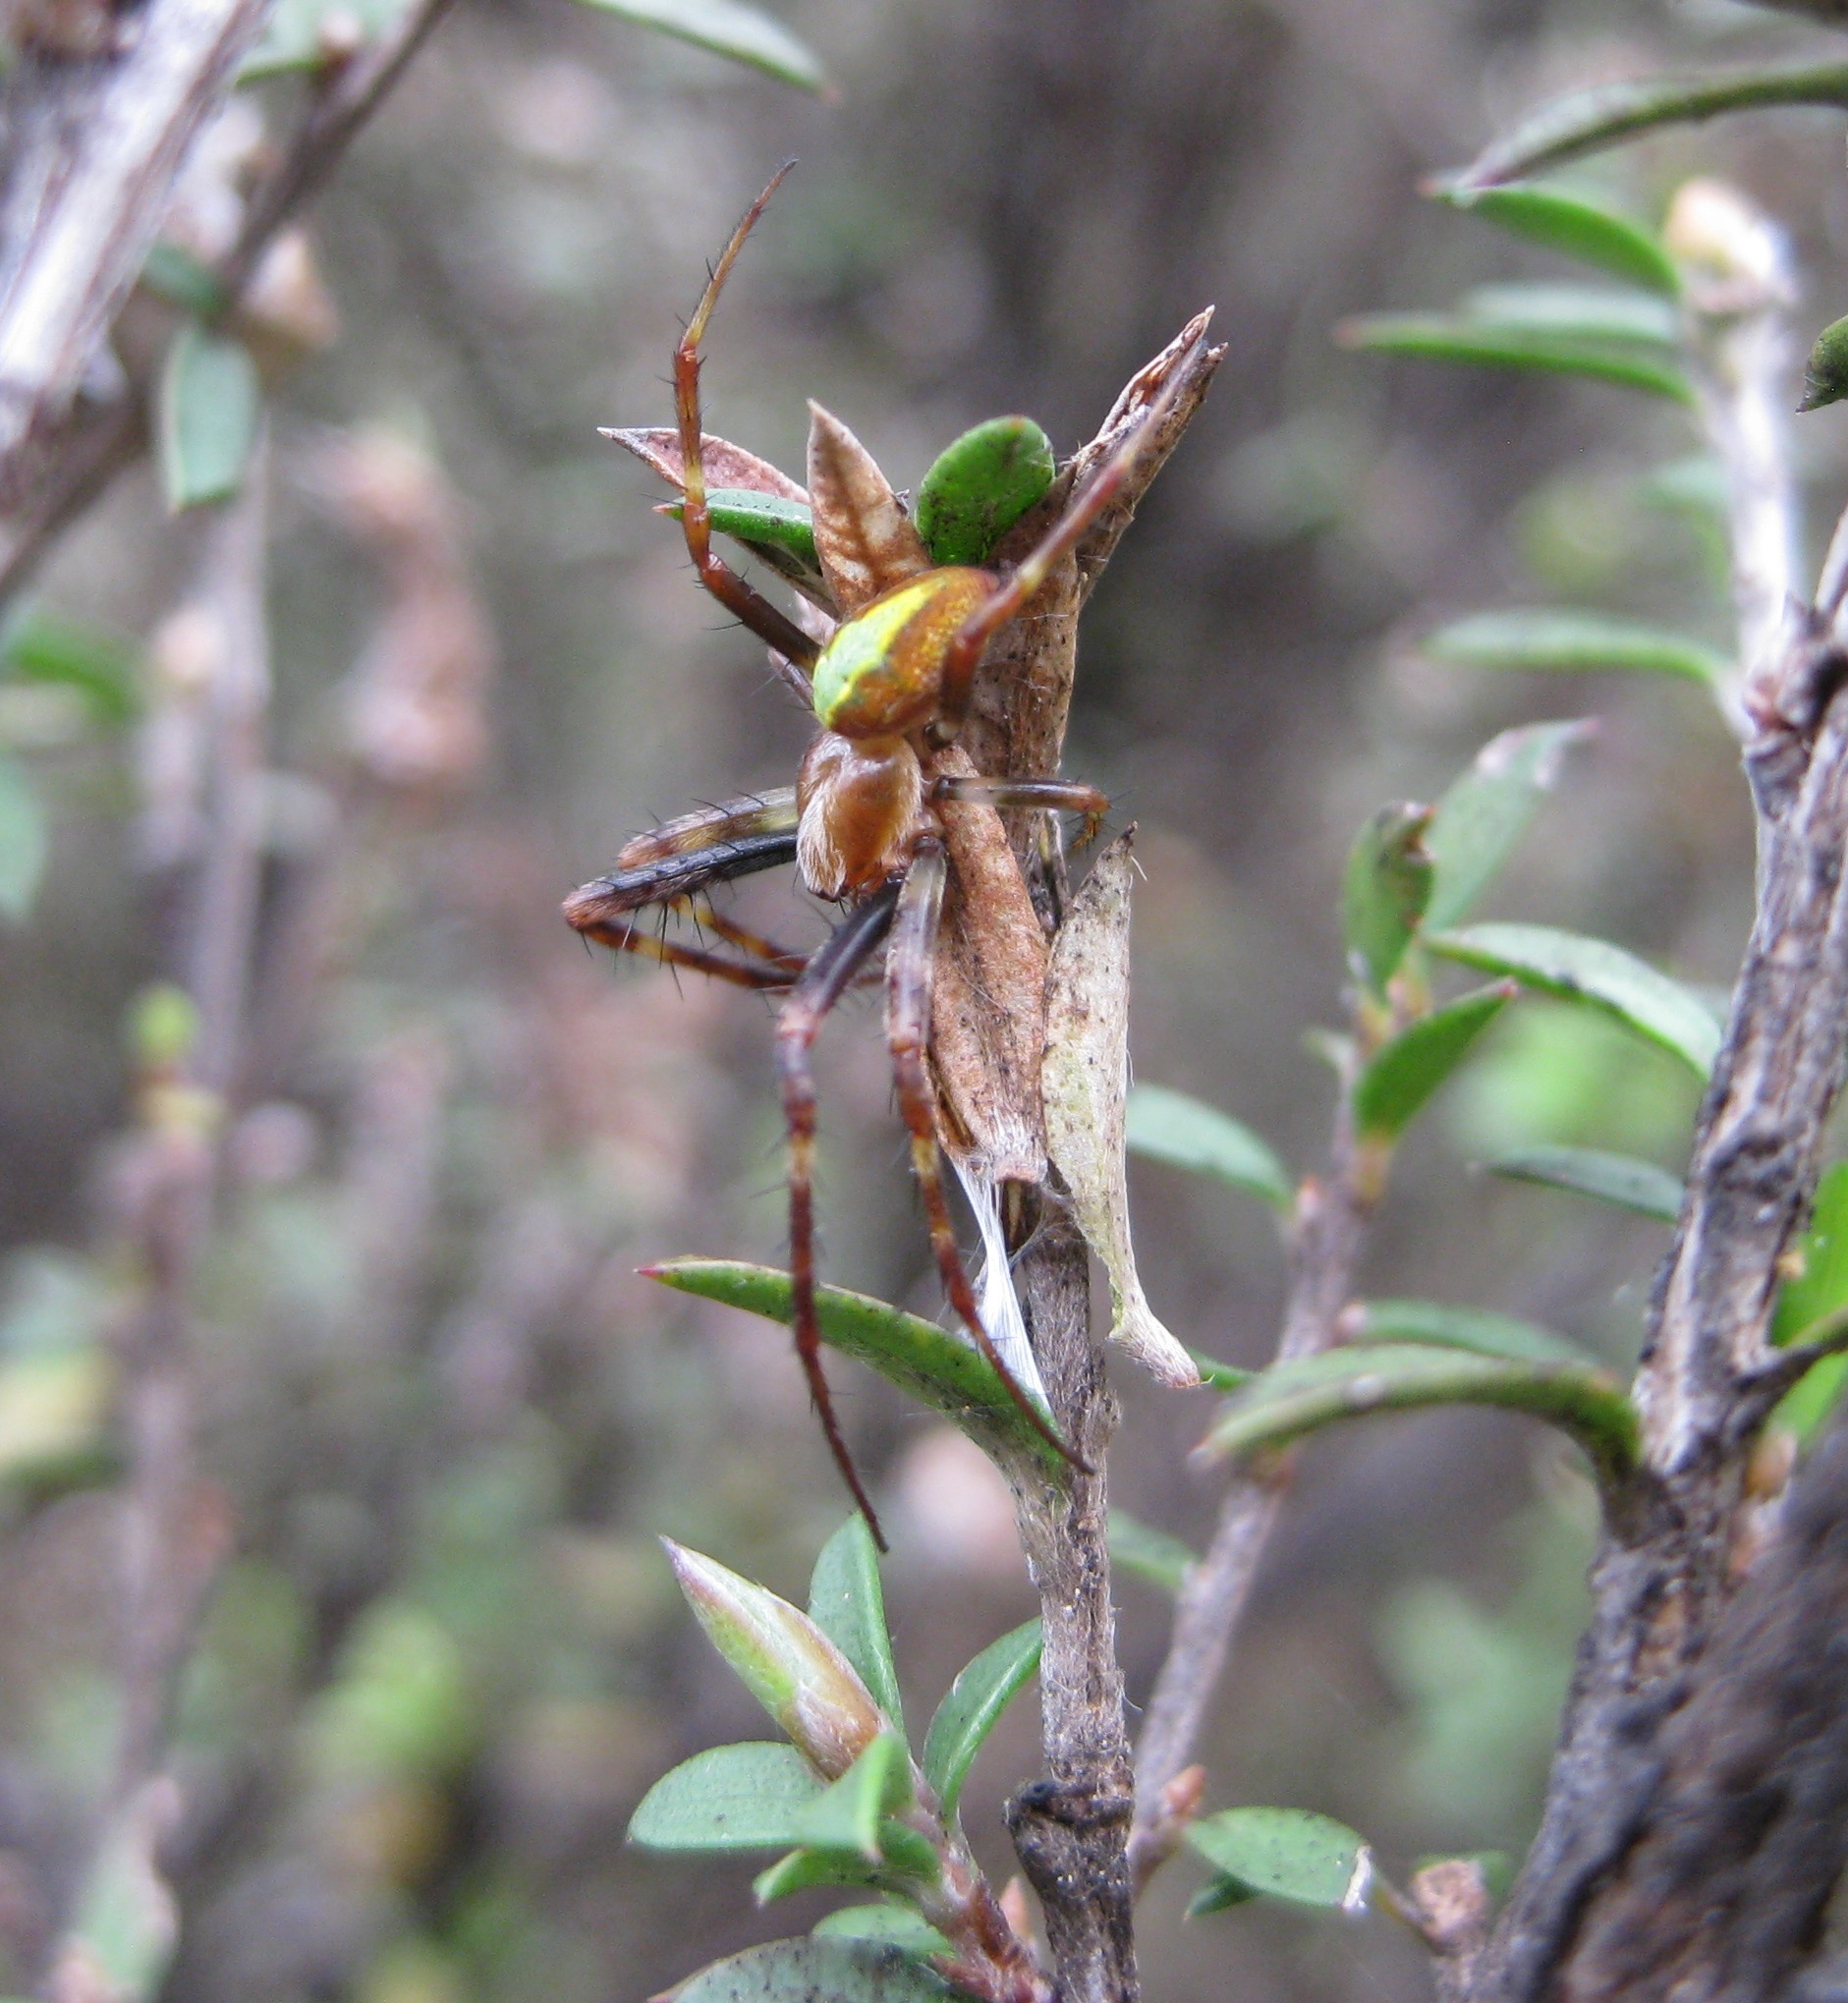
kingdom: Animalia
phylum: Arthropoda
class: Arachnida
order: Araneae
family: Araneidae
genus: Novaranea
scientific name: Novaranea queribunda
